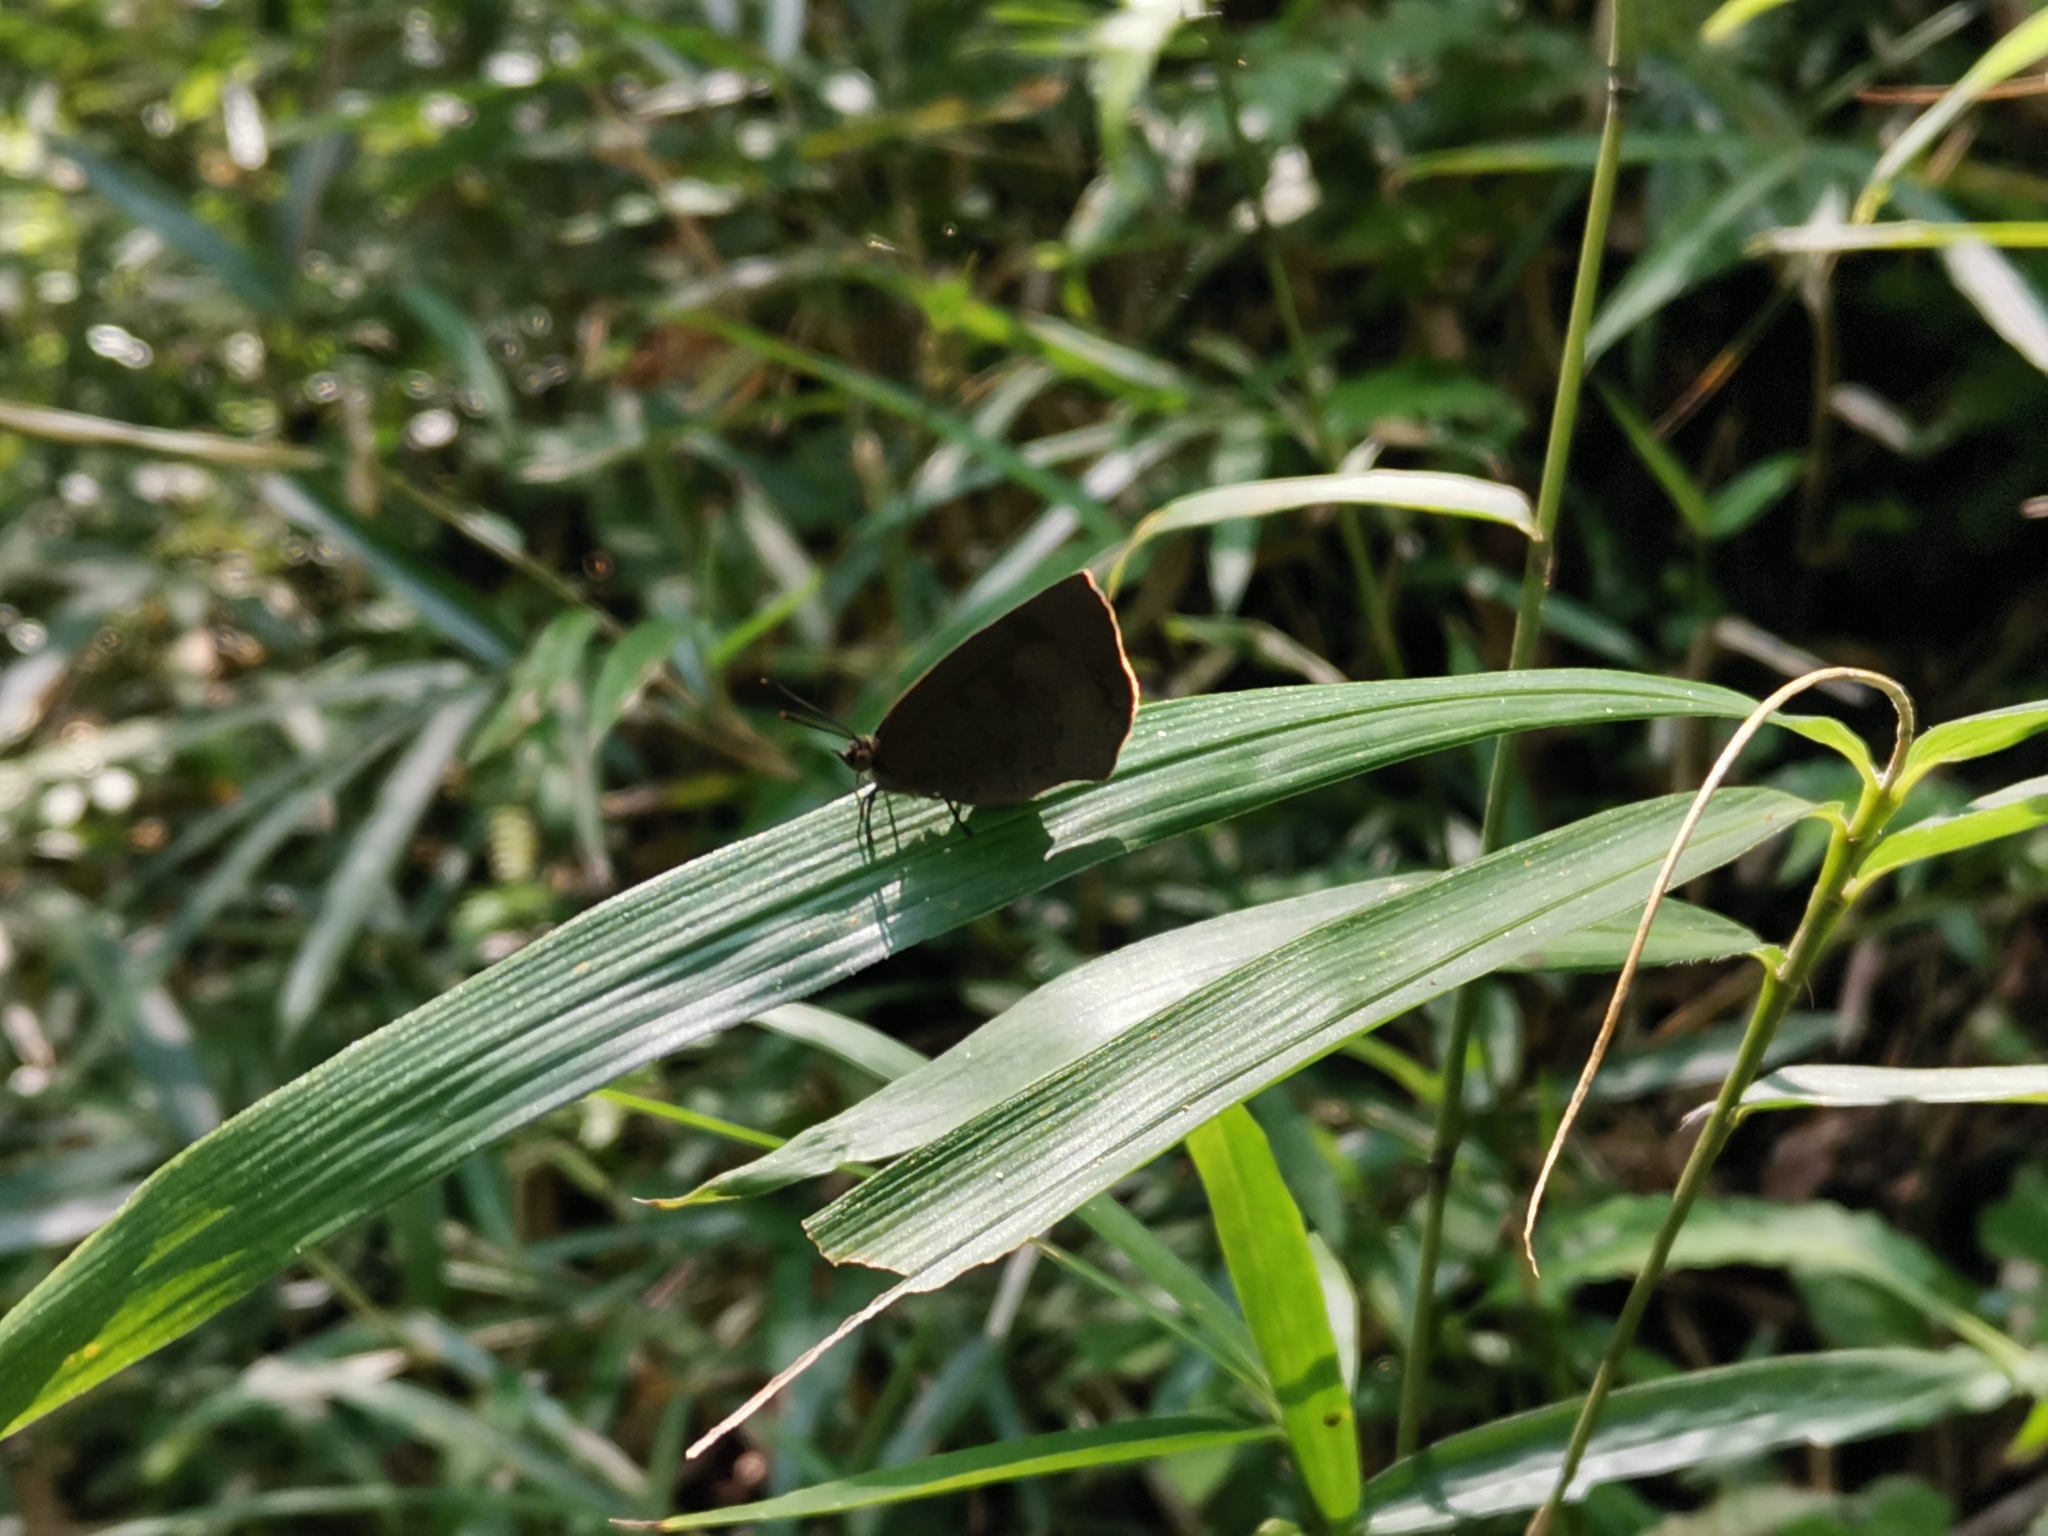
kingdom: Animalia
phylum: Arthropoda
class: Insecta
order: Lepidoptera
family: Lycaenidae
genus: Arhopala
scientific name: Arhopala japonica
